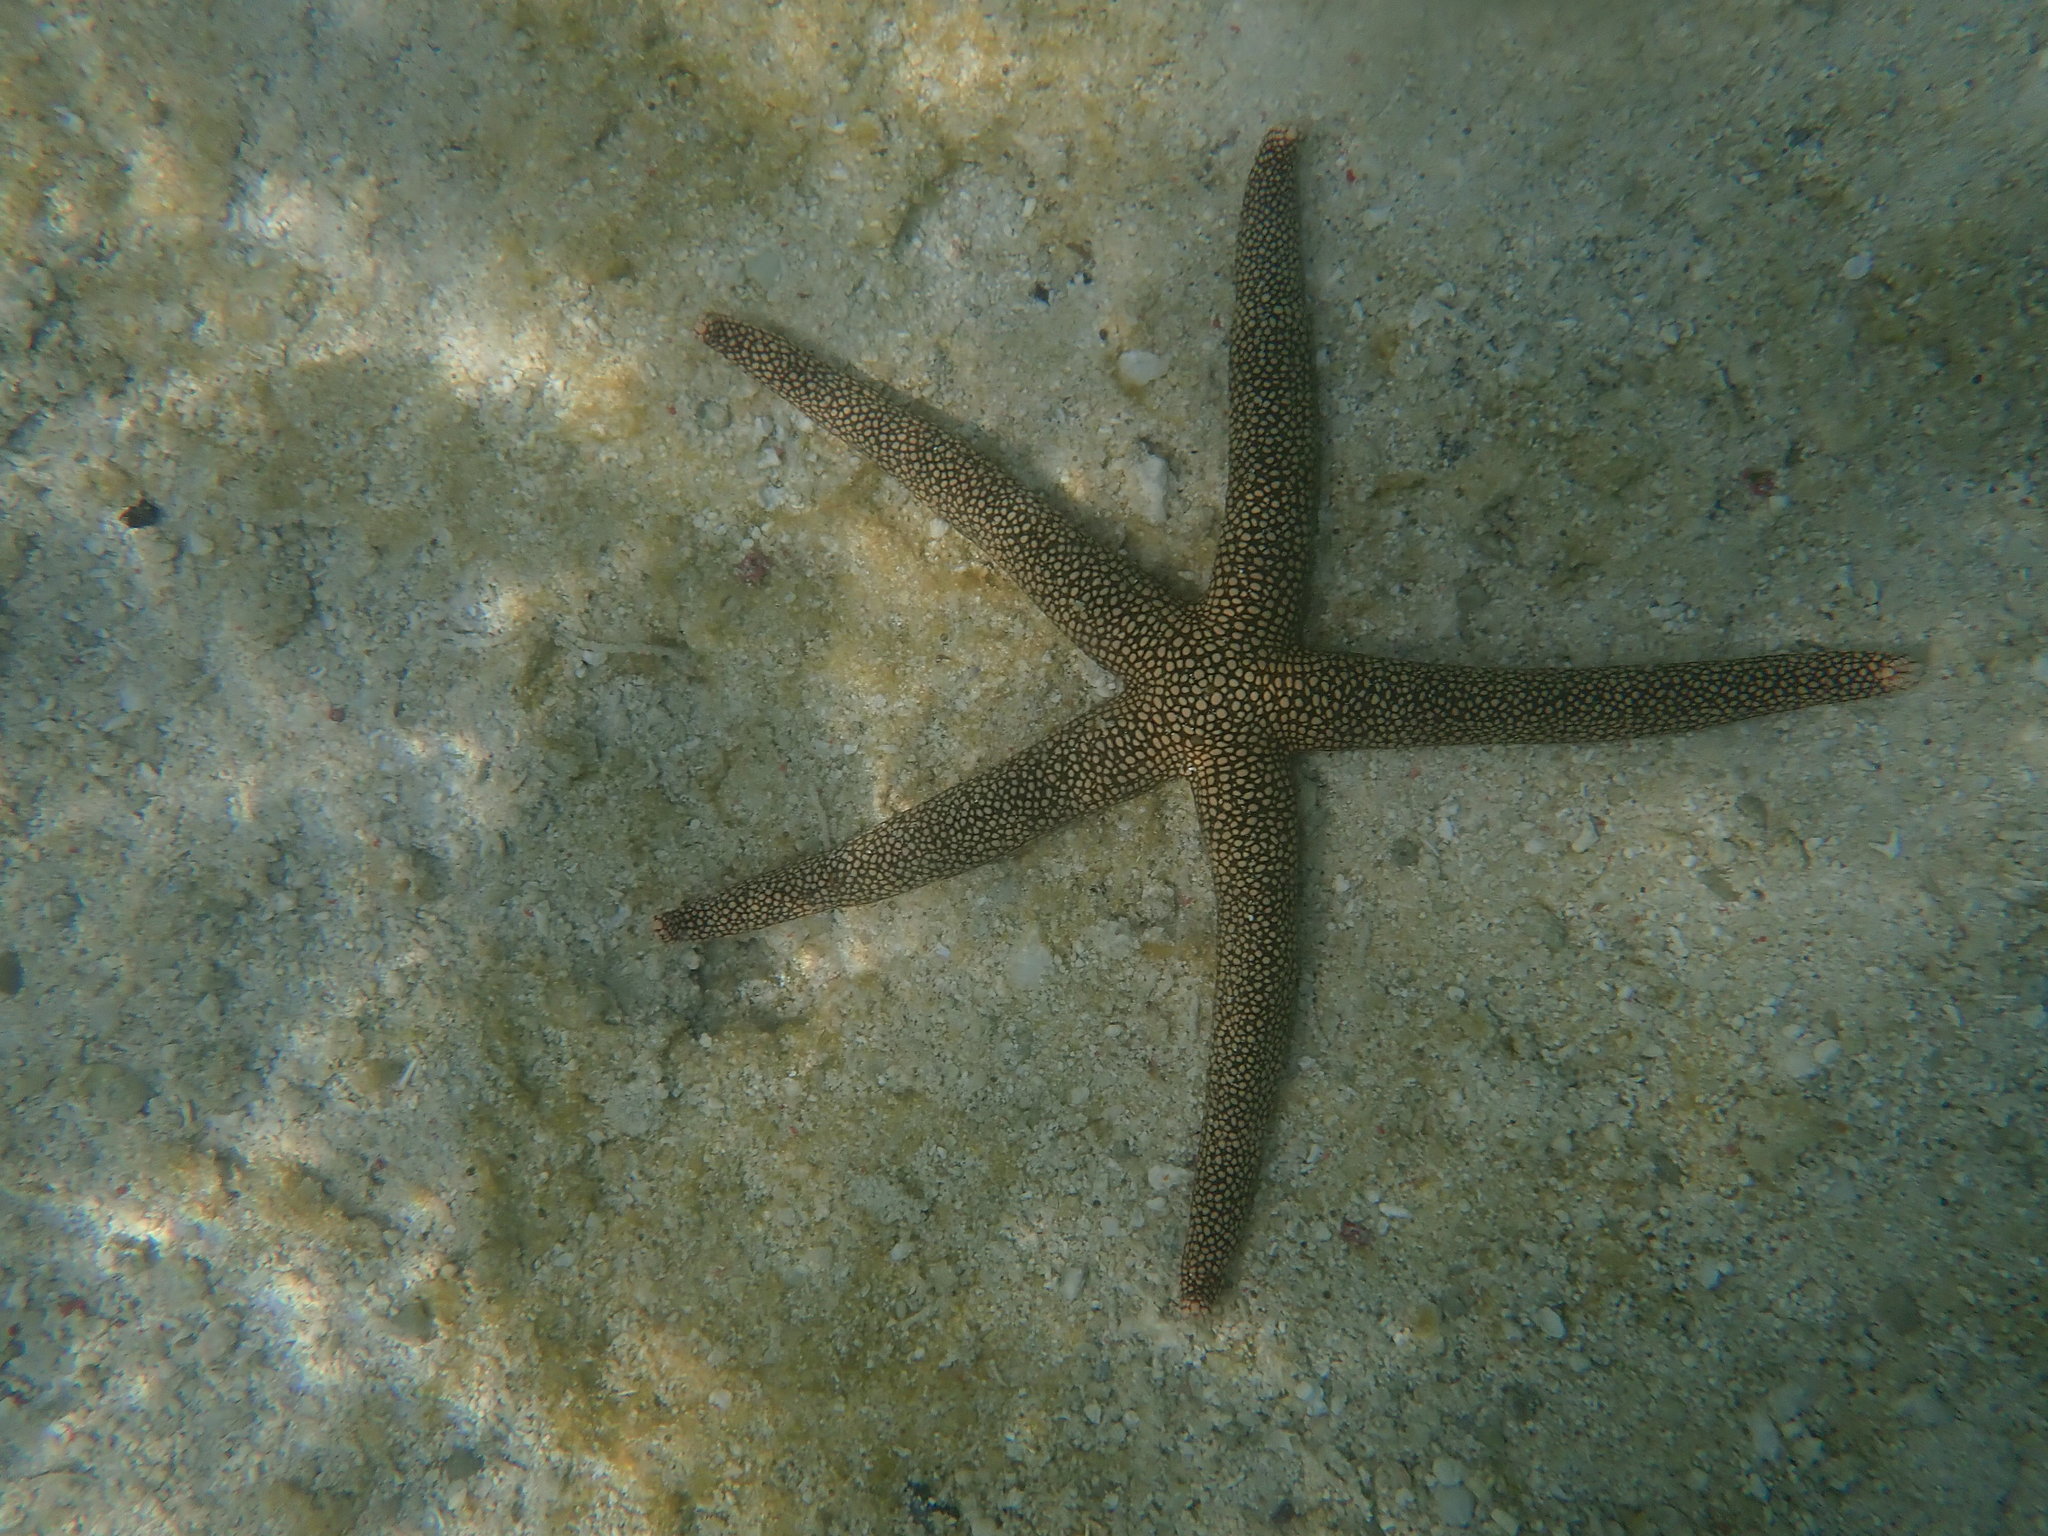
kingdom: Animalia
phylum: Echinodermata
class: Asteroidea
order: Valvatida
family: Ophidiasteridae
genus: Nardoa
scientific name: Nardoa novaecaledoniae
